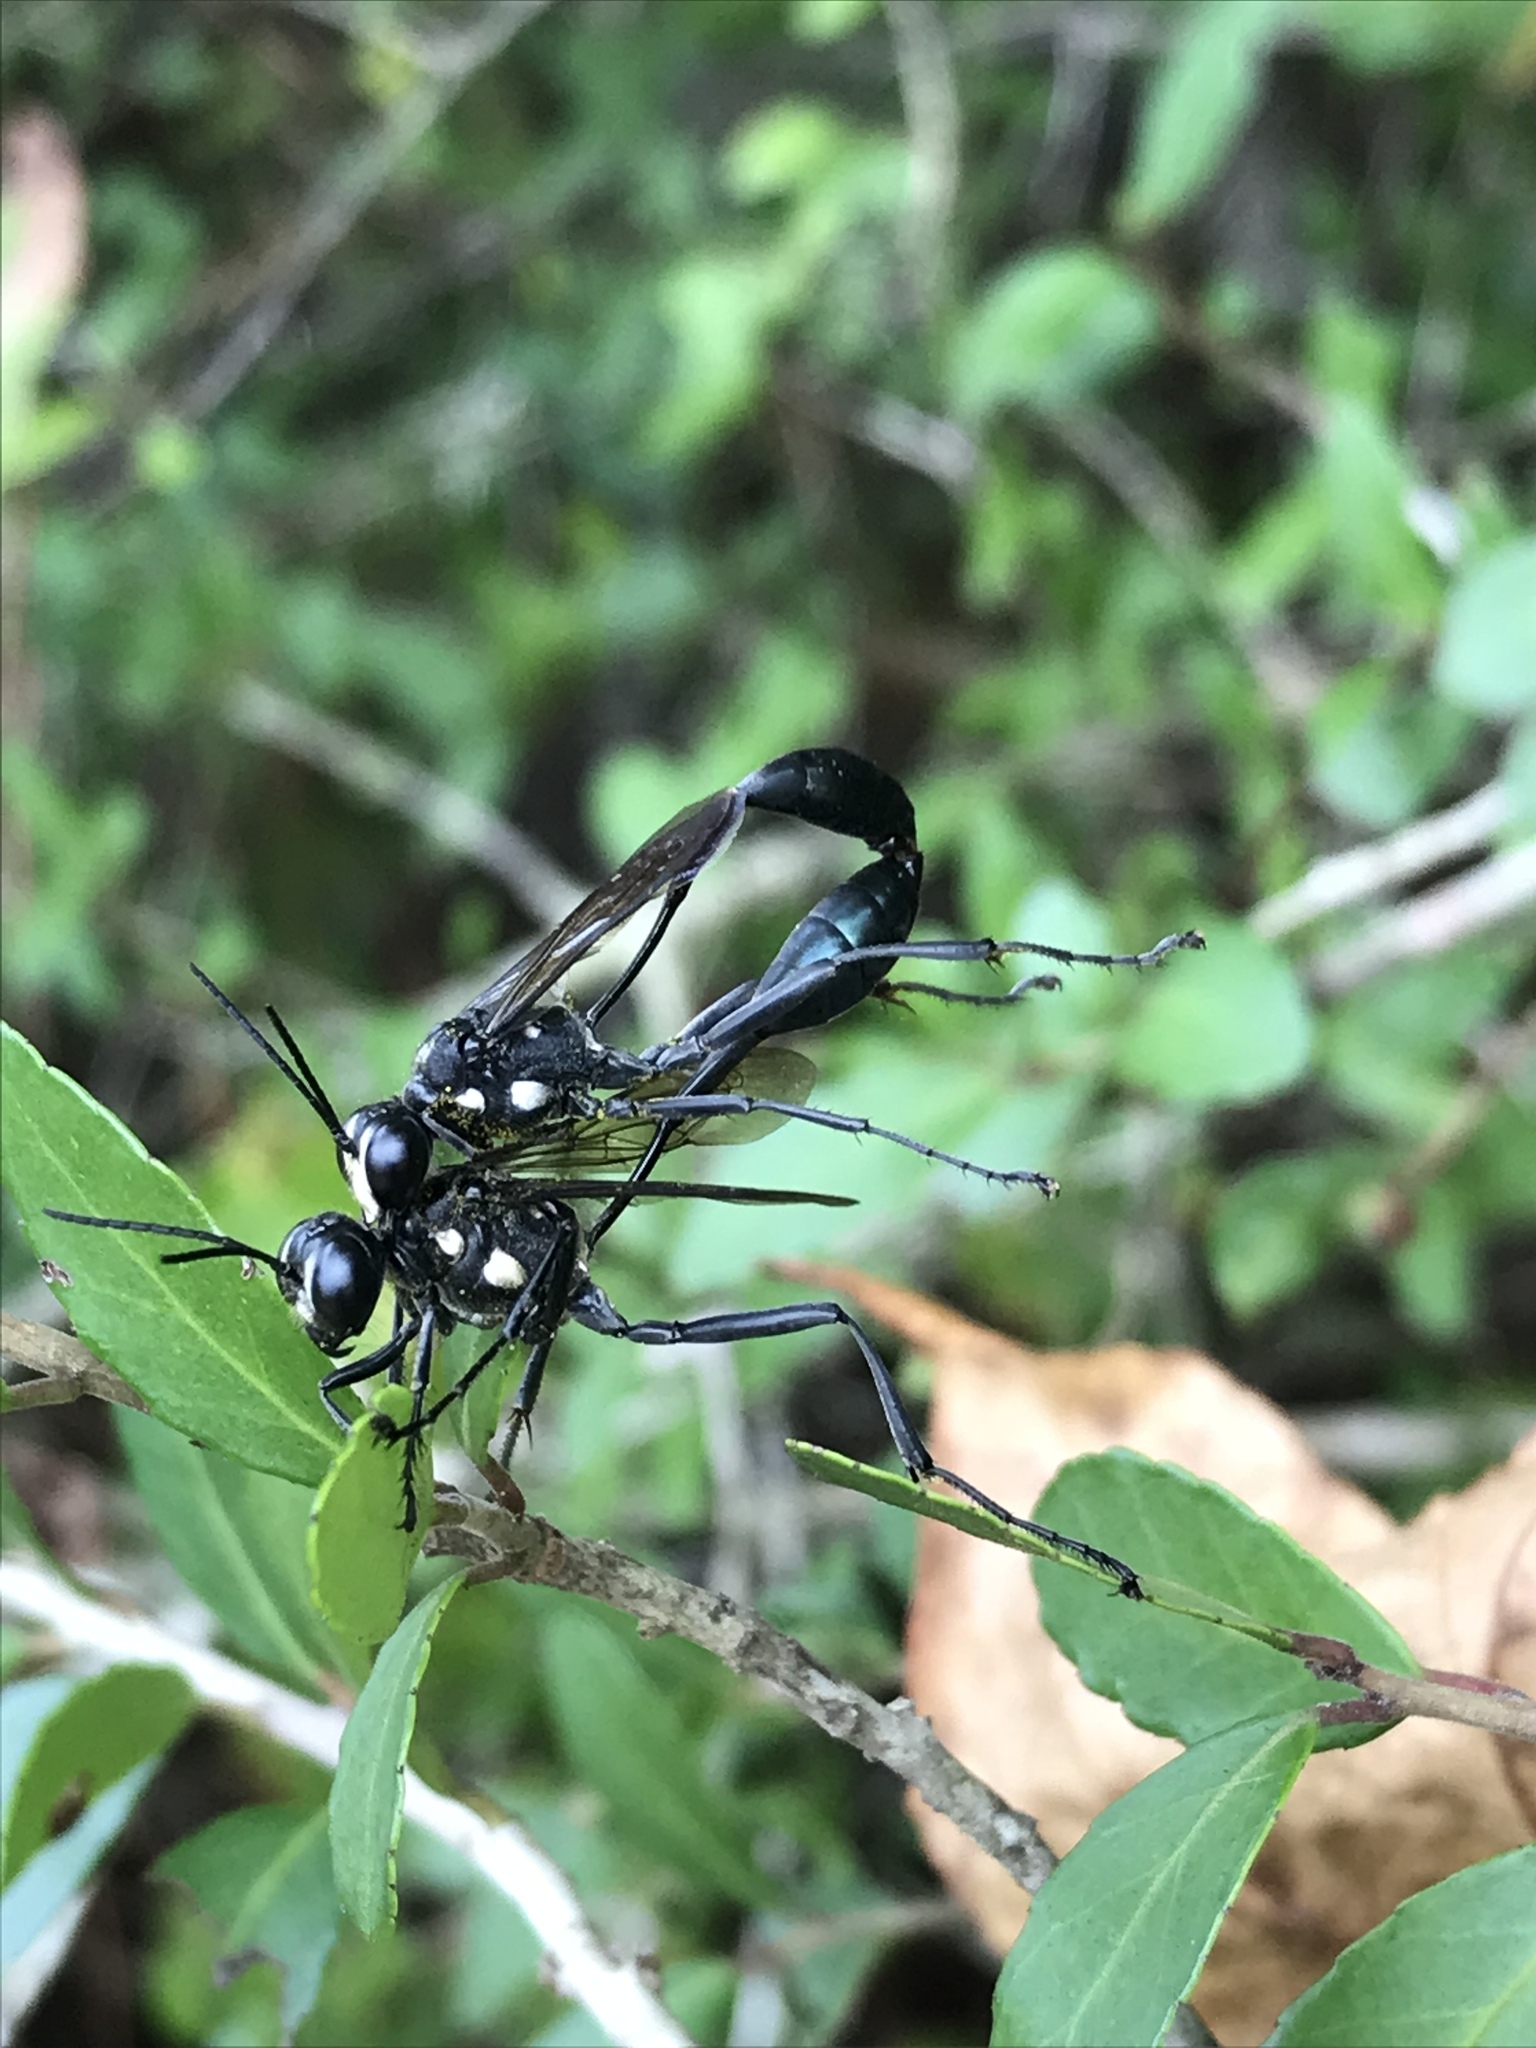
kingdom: Animalia
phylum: Arthropoda
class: Insecta
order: Hymenoptera
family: Sphecidae
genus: Eremnophila
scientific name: Eremnophila aureonotata
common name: Gold-marked thread-waisted wasp
